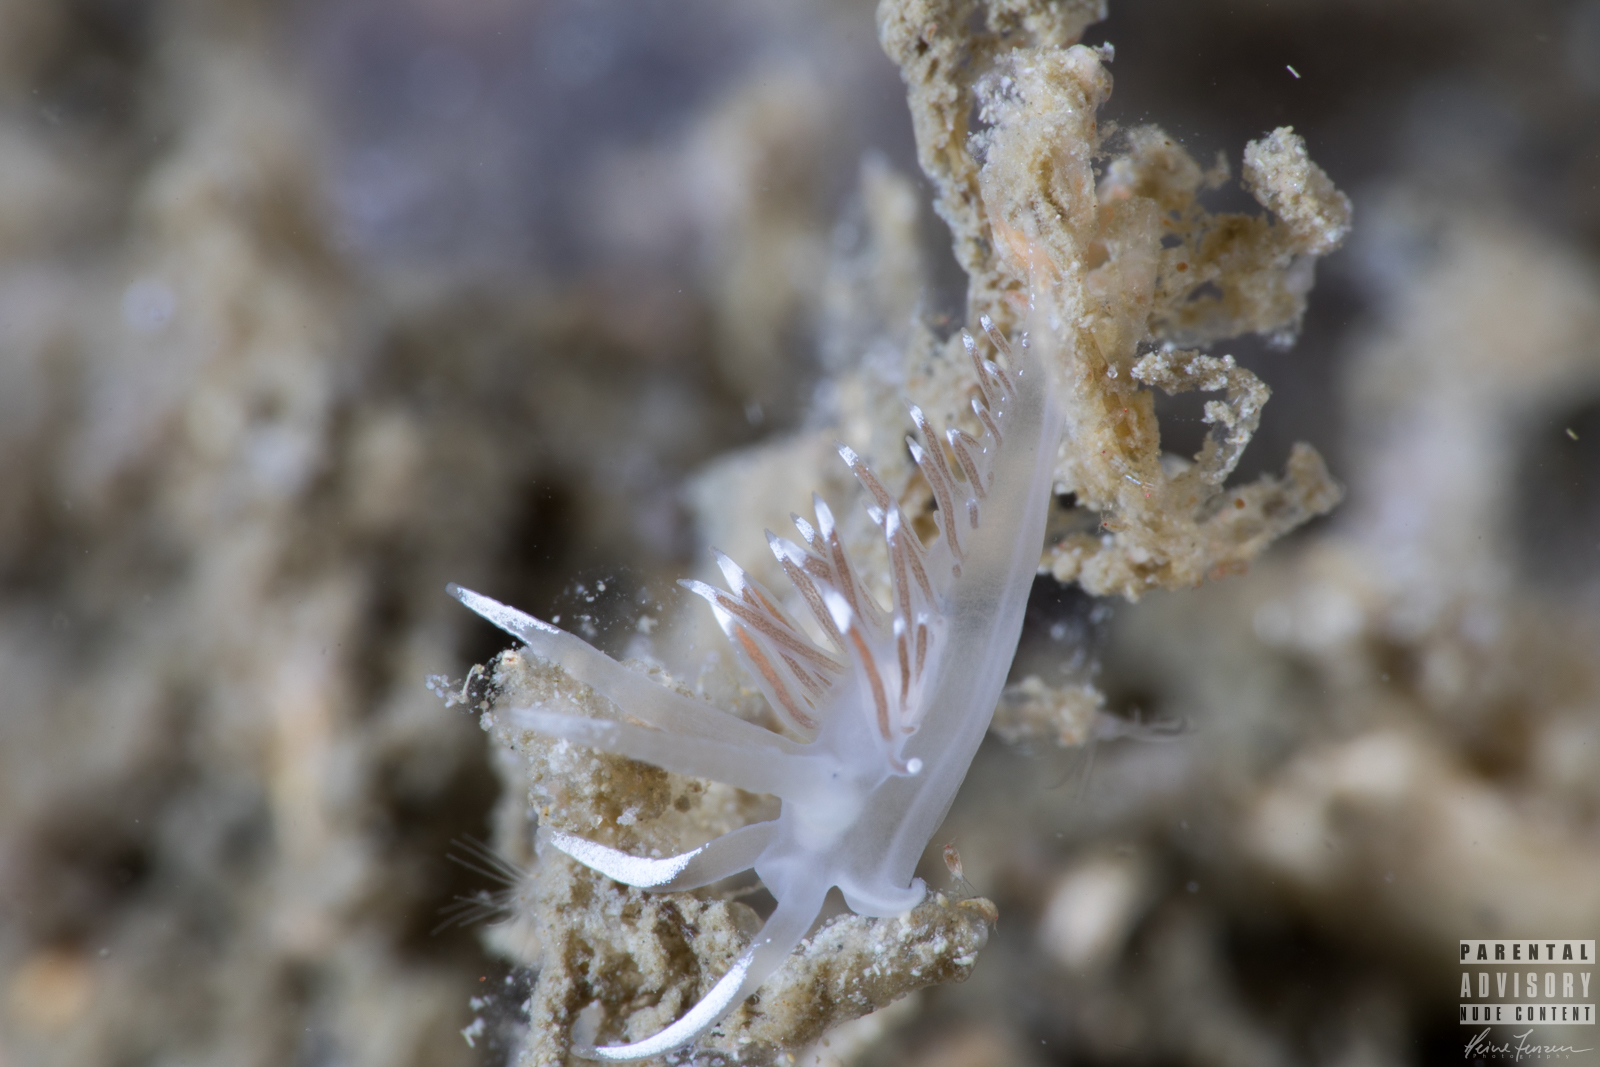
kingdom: Animalia
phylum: Mollusca
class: Gastropoda
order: Nudibranchia
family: Coryphellidae
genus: Coryphella
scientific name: Coryphella browni
